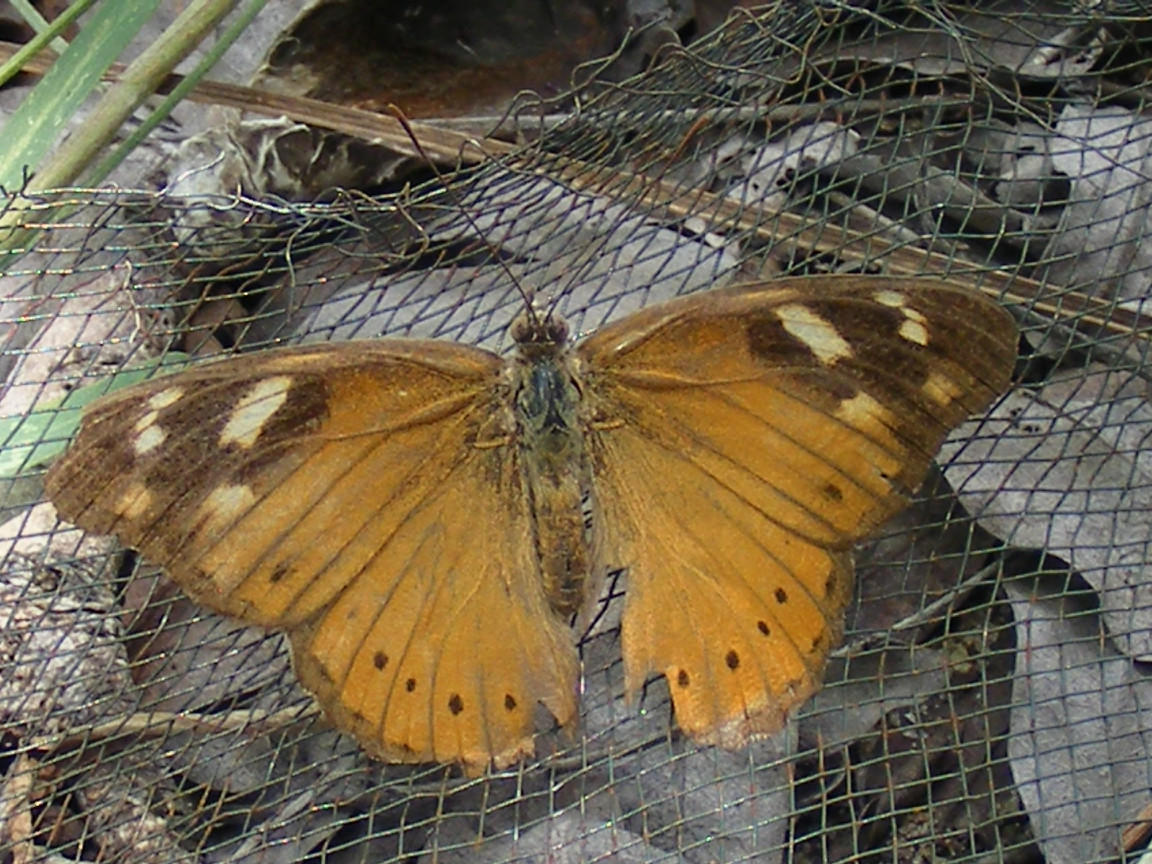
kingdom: Animalia
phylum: Arthropoda
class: Insecta
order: Lepidoptera
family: Nymphalidae
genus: Sallya
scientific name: Sallya natalensis
